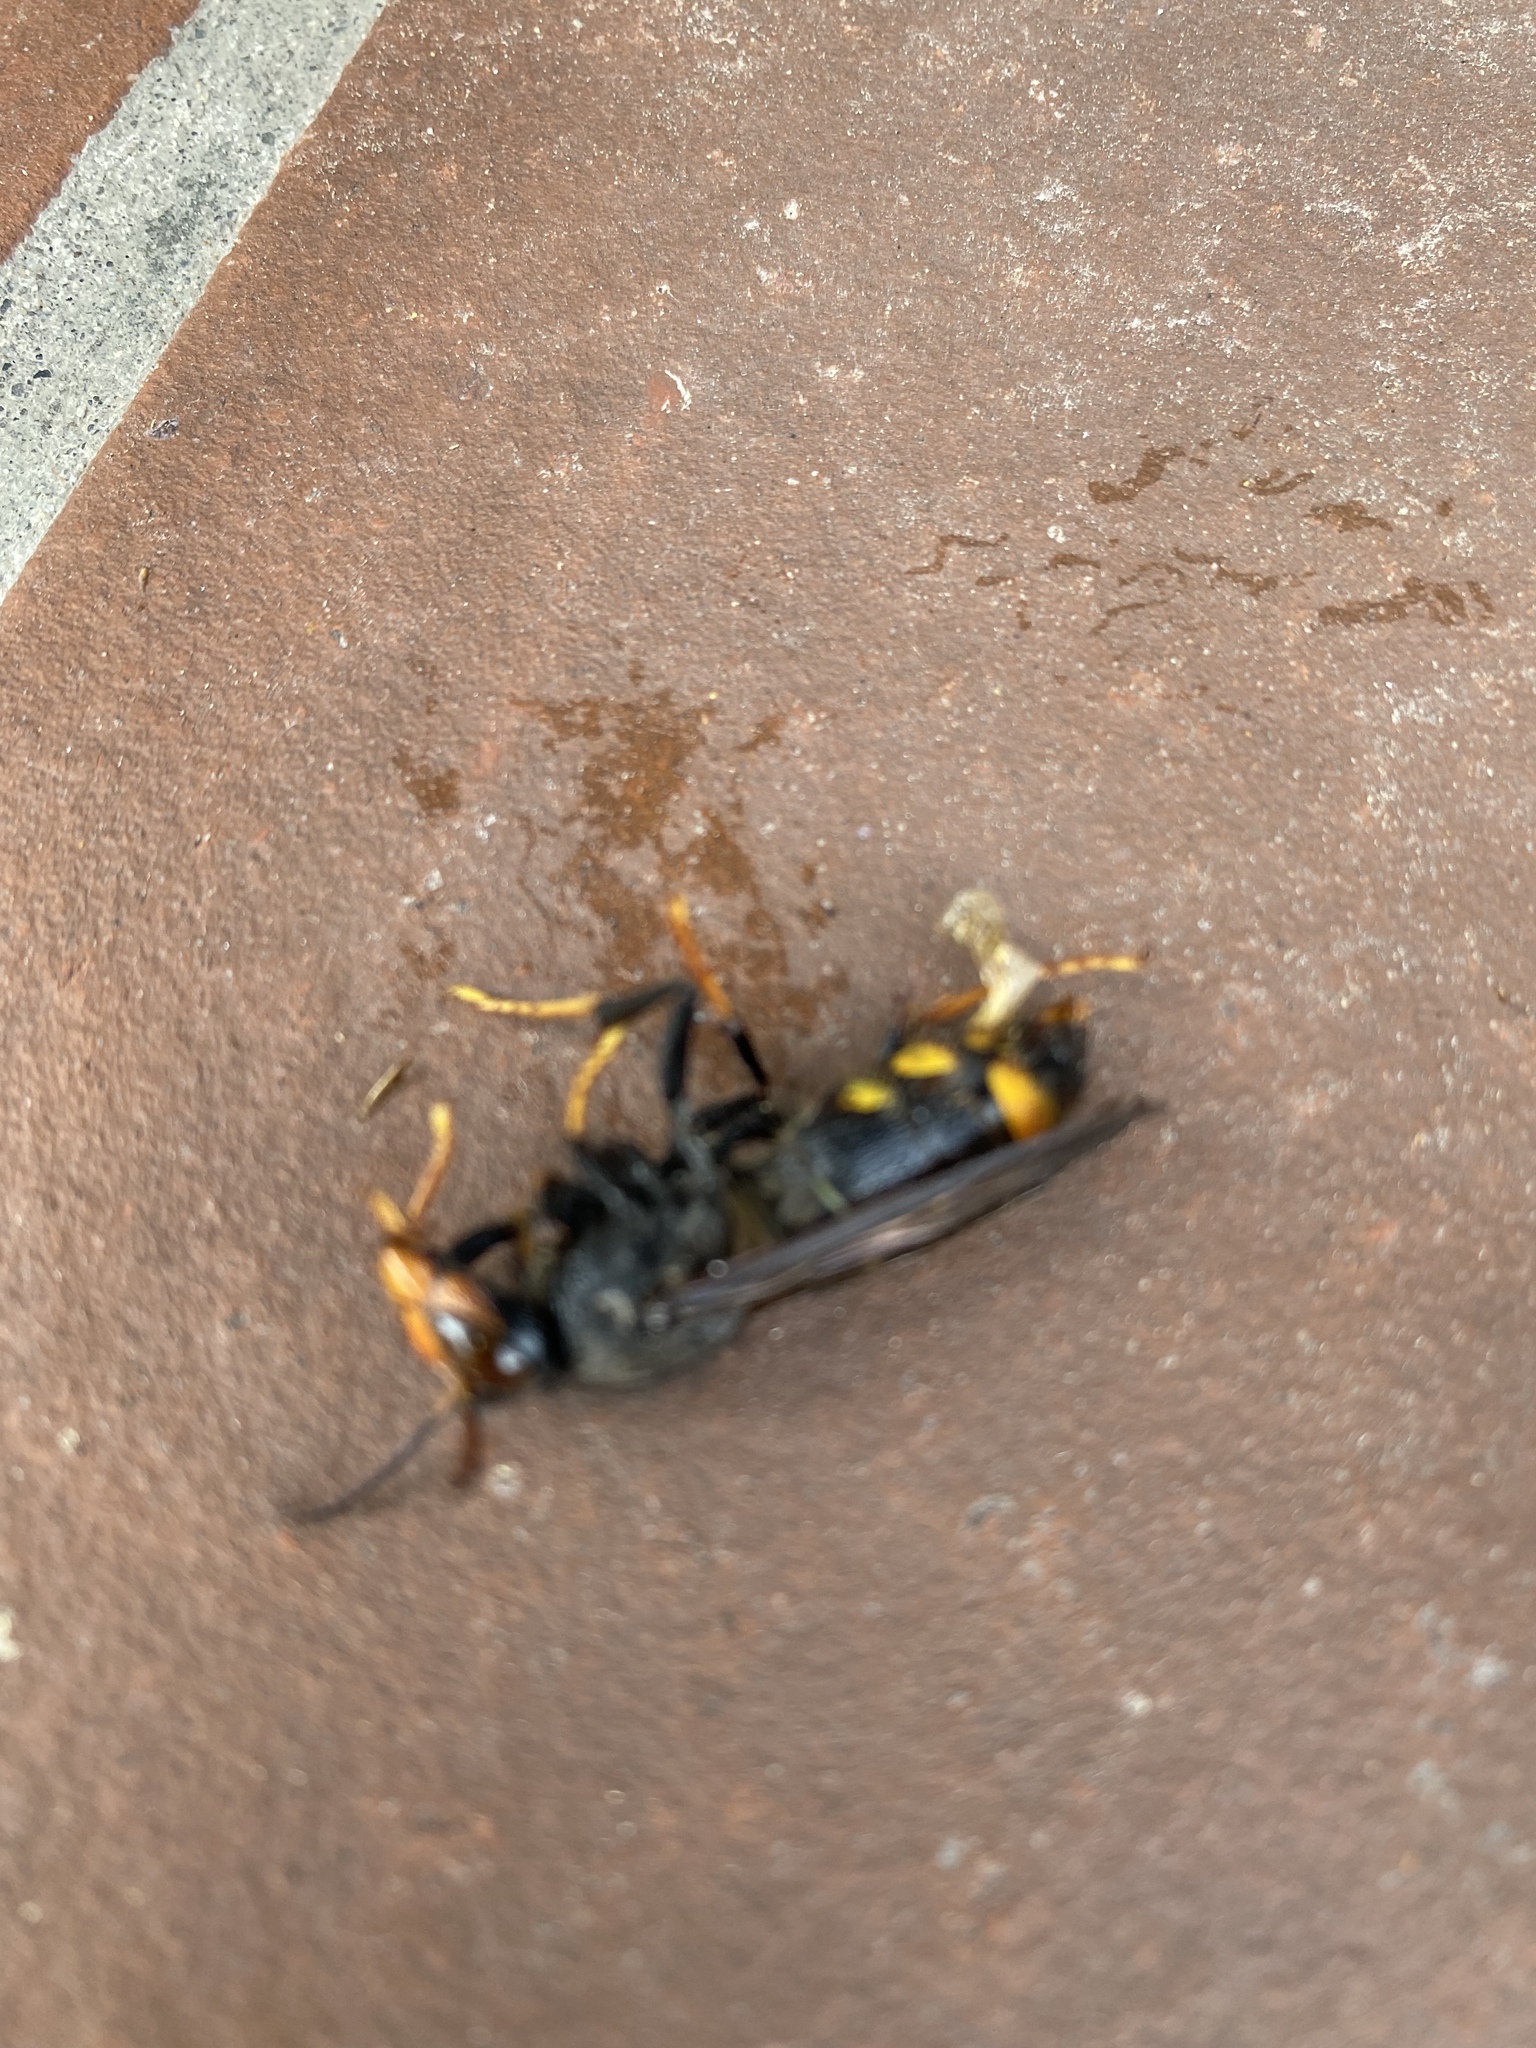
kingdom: Animalia
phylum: Arthropoda
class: Insecta
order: Hymenoptera
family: Vespidae
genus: Vespa
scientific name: Vespa velutina
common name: Asian hornet
